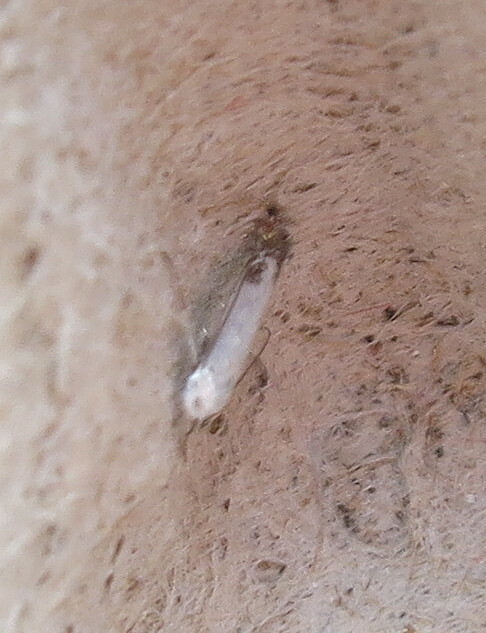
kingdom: Animalia
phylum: Arthropoda
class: Insecta
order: Lepidoptera
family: Lyonetiidae
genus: Lyonetia
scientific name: Lyonetia clerkella
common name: Apple leaf miner
